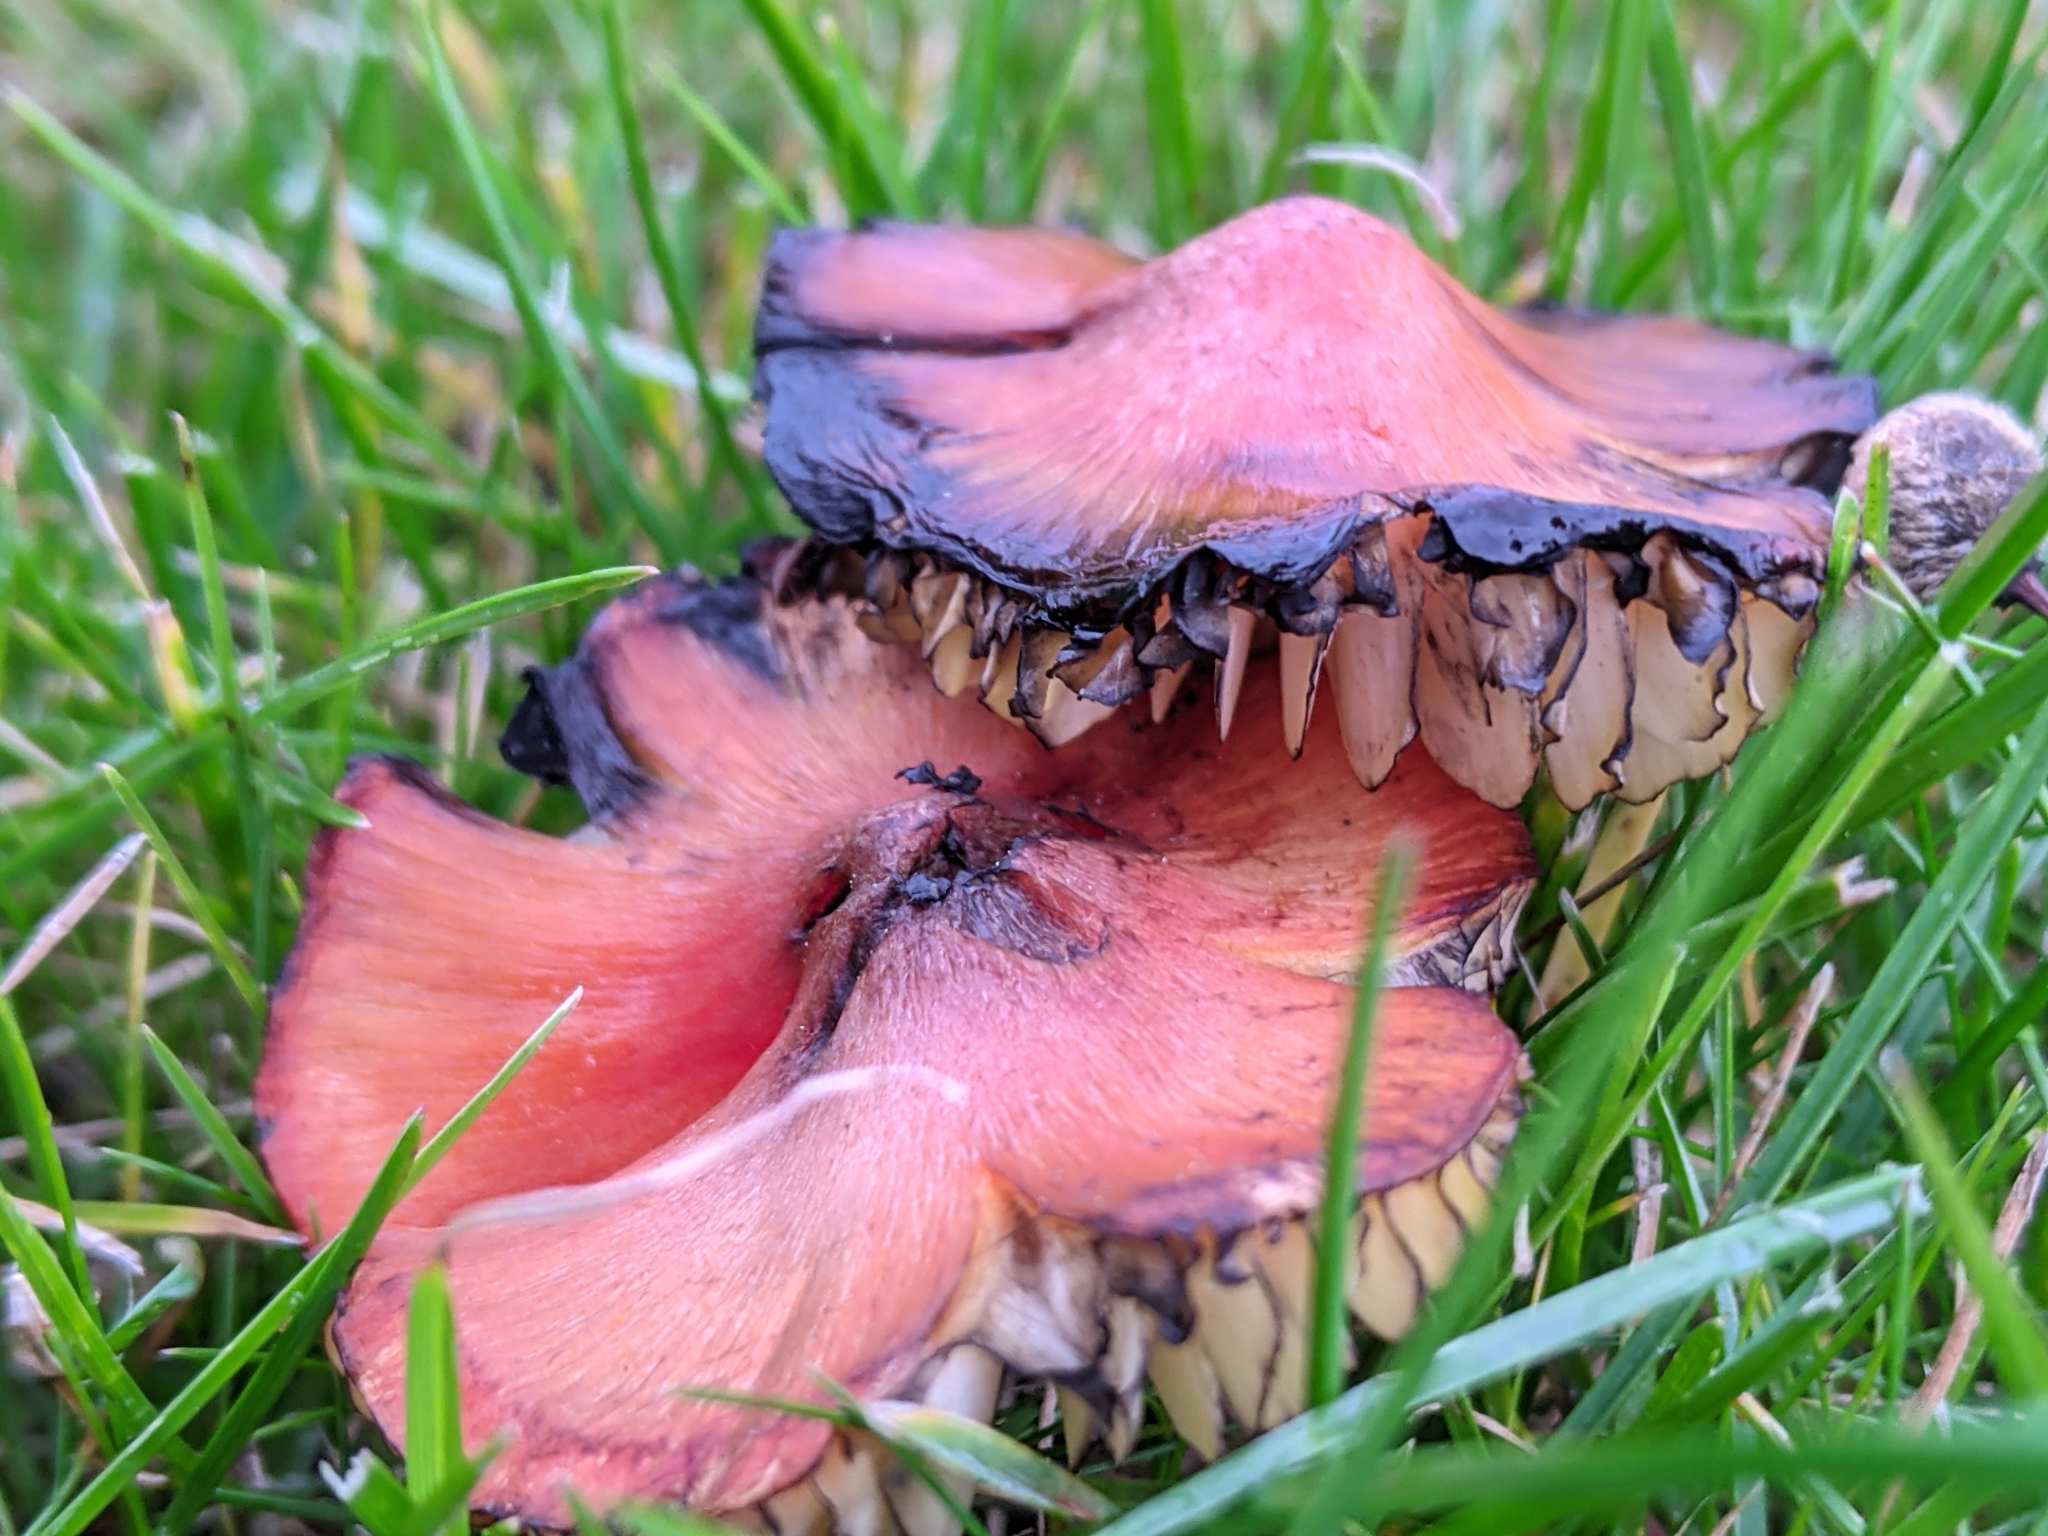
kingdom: Fungi
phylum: Basidiomycota
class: Agaricomycetes
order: Agaricales
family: Hygrophoraceae
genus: Hygrocybe
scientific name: Hygrocybe conica
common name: Blackening wax-cap
